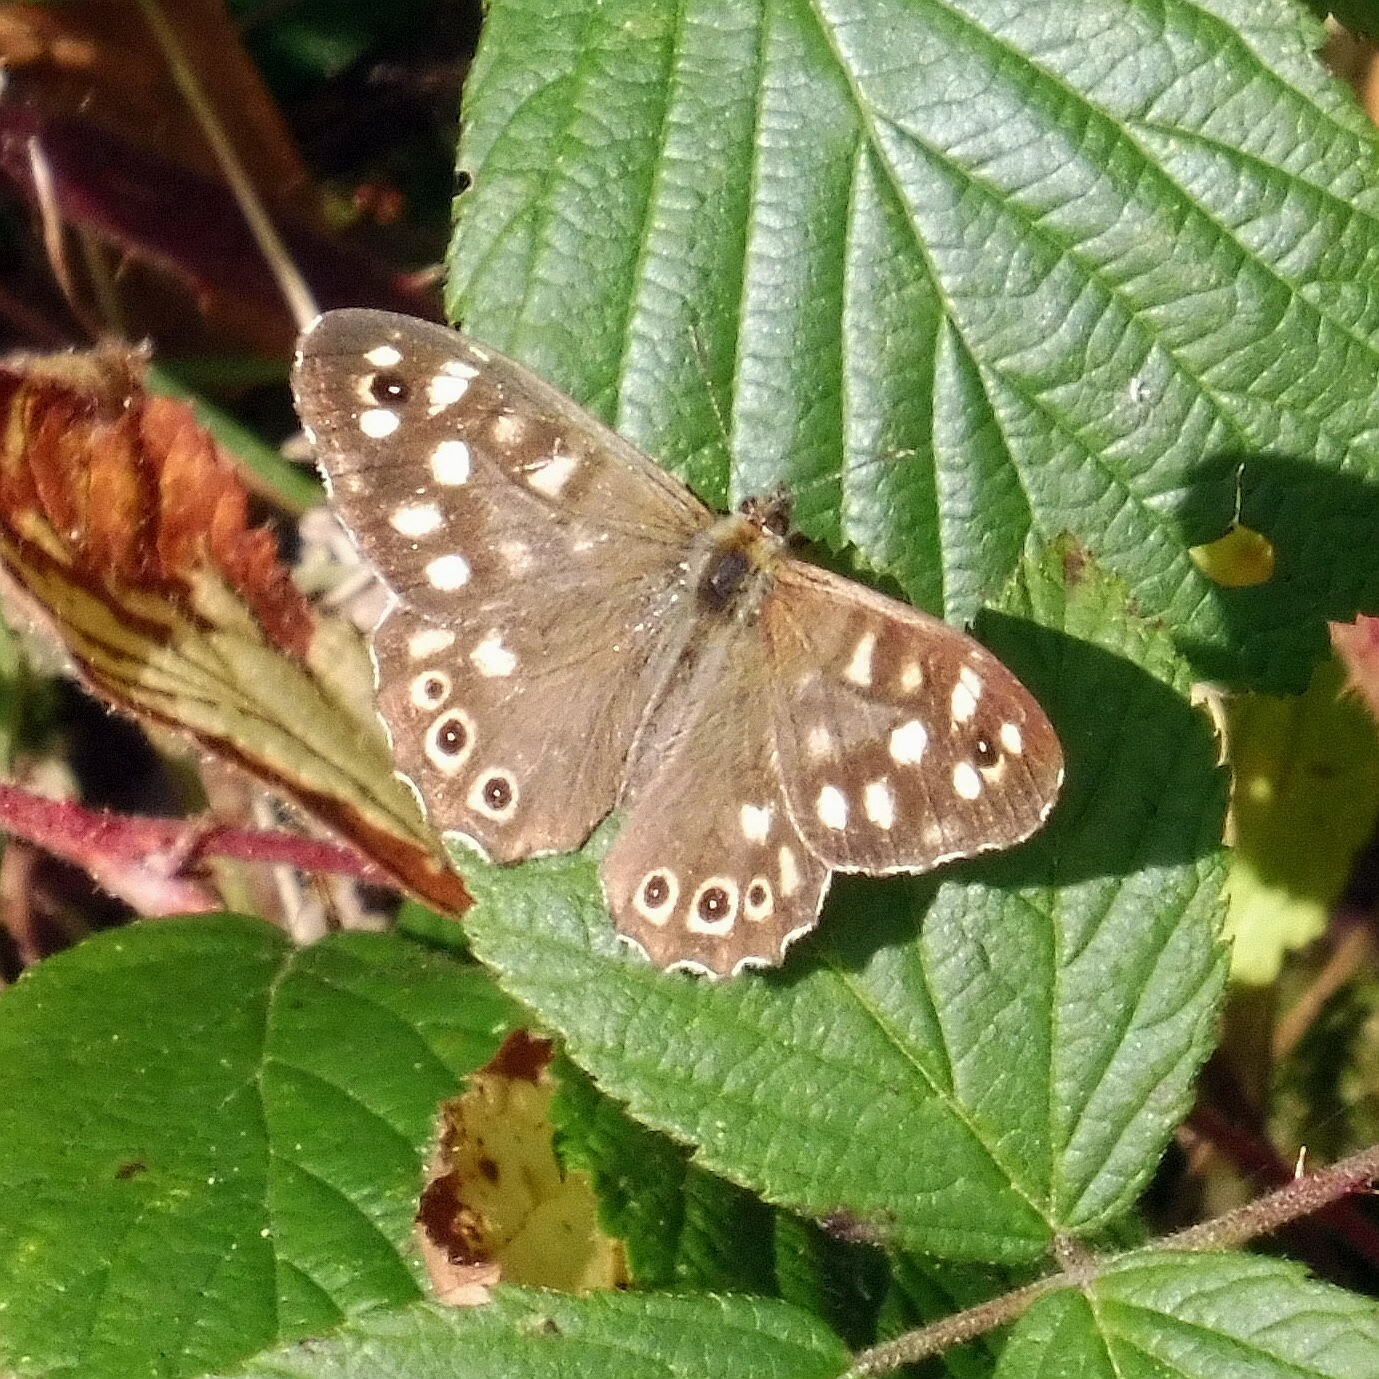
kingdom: Animalia
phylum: Arthropoda
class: Insecta
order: Lepidoptera
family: Nymphalidae
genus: Pararge
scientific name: Pararge aegeria
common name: Speckled wood
